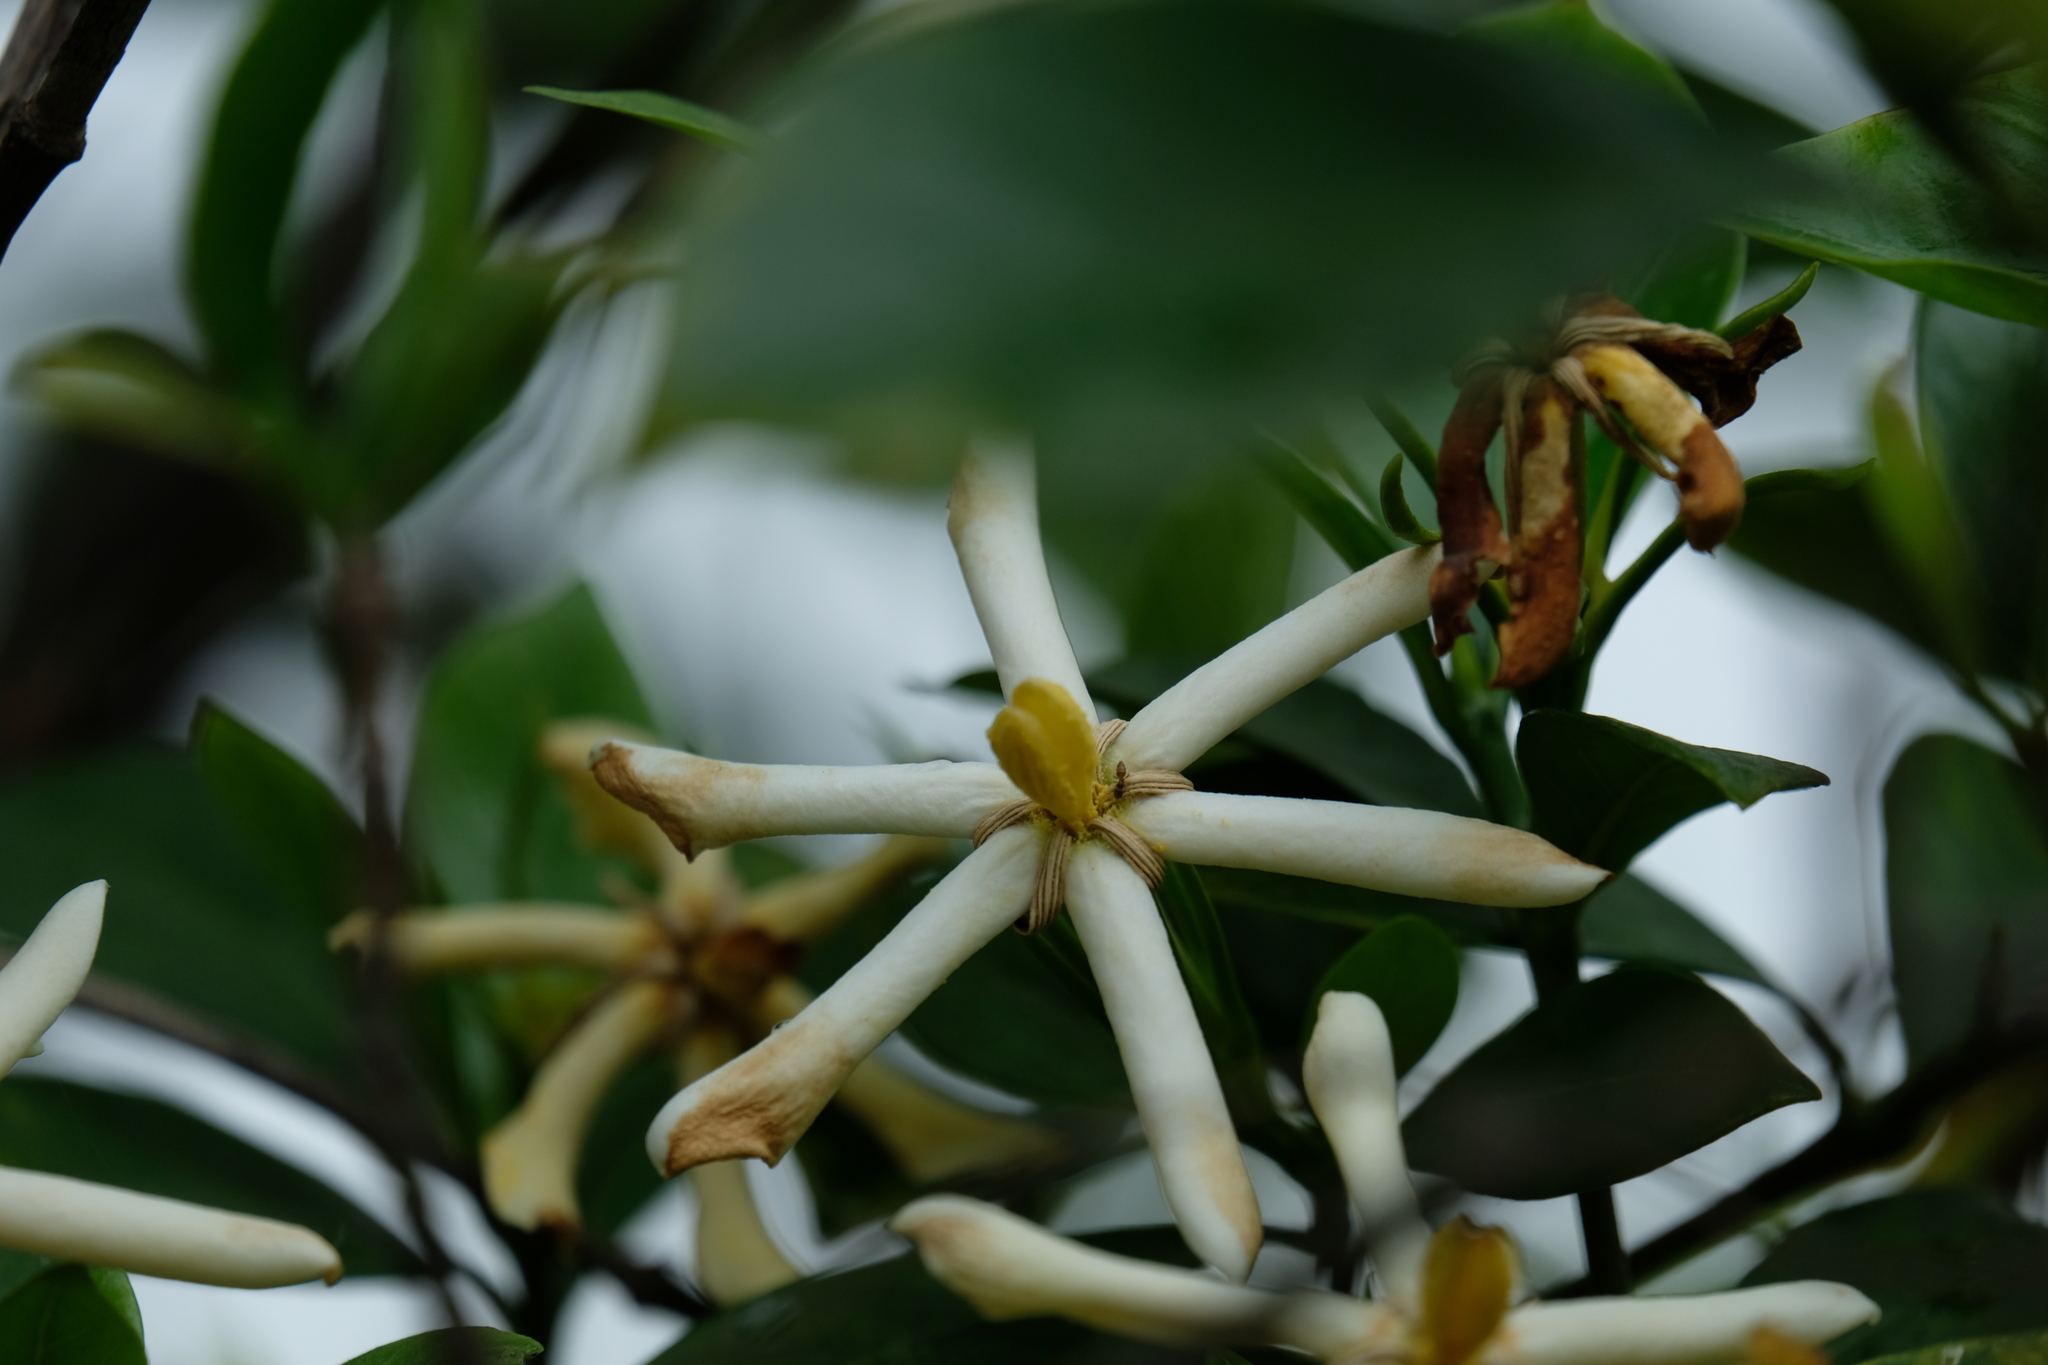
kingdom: Plantae
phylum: Tracheophyta
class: Magnoliopsida
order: Gentianales
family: Rubiaceae
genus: Gardenia
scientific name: Gardenia jasminoides
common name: Cape-jasmine
